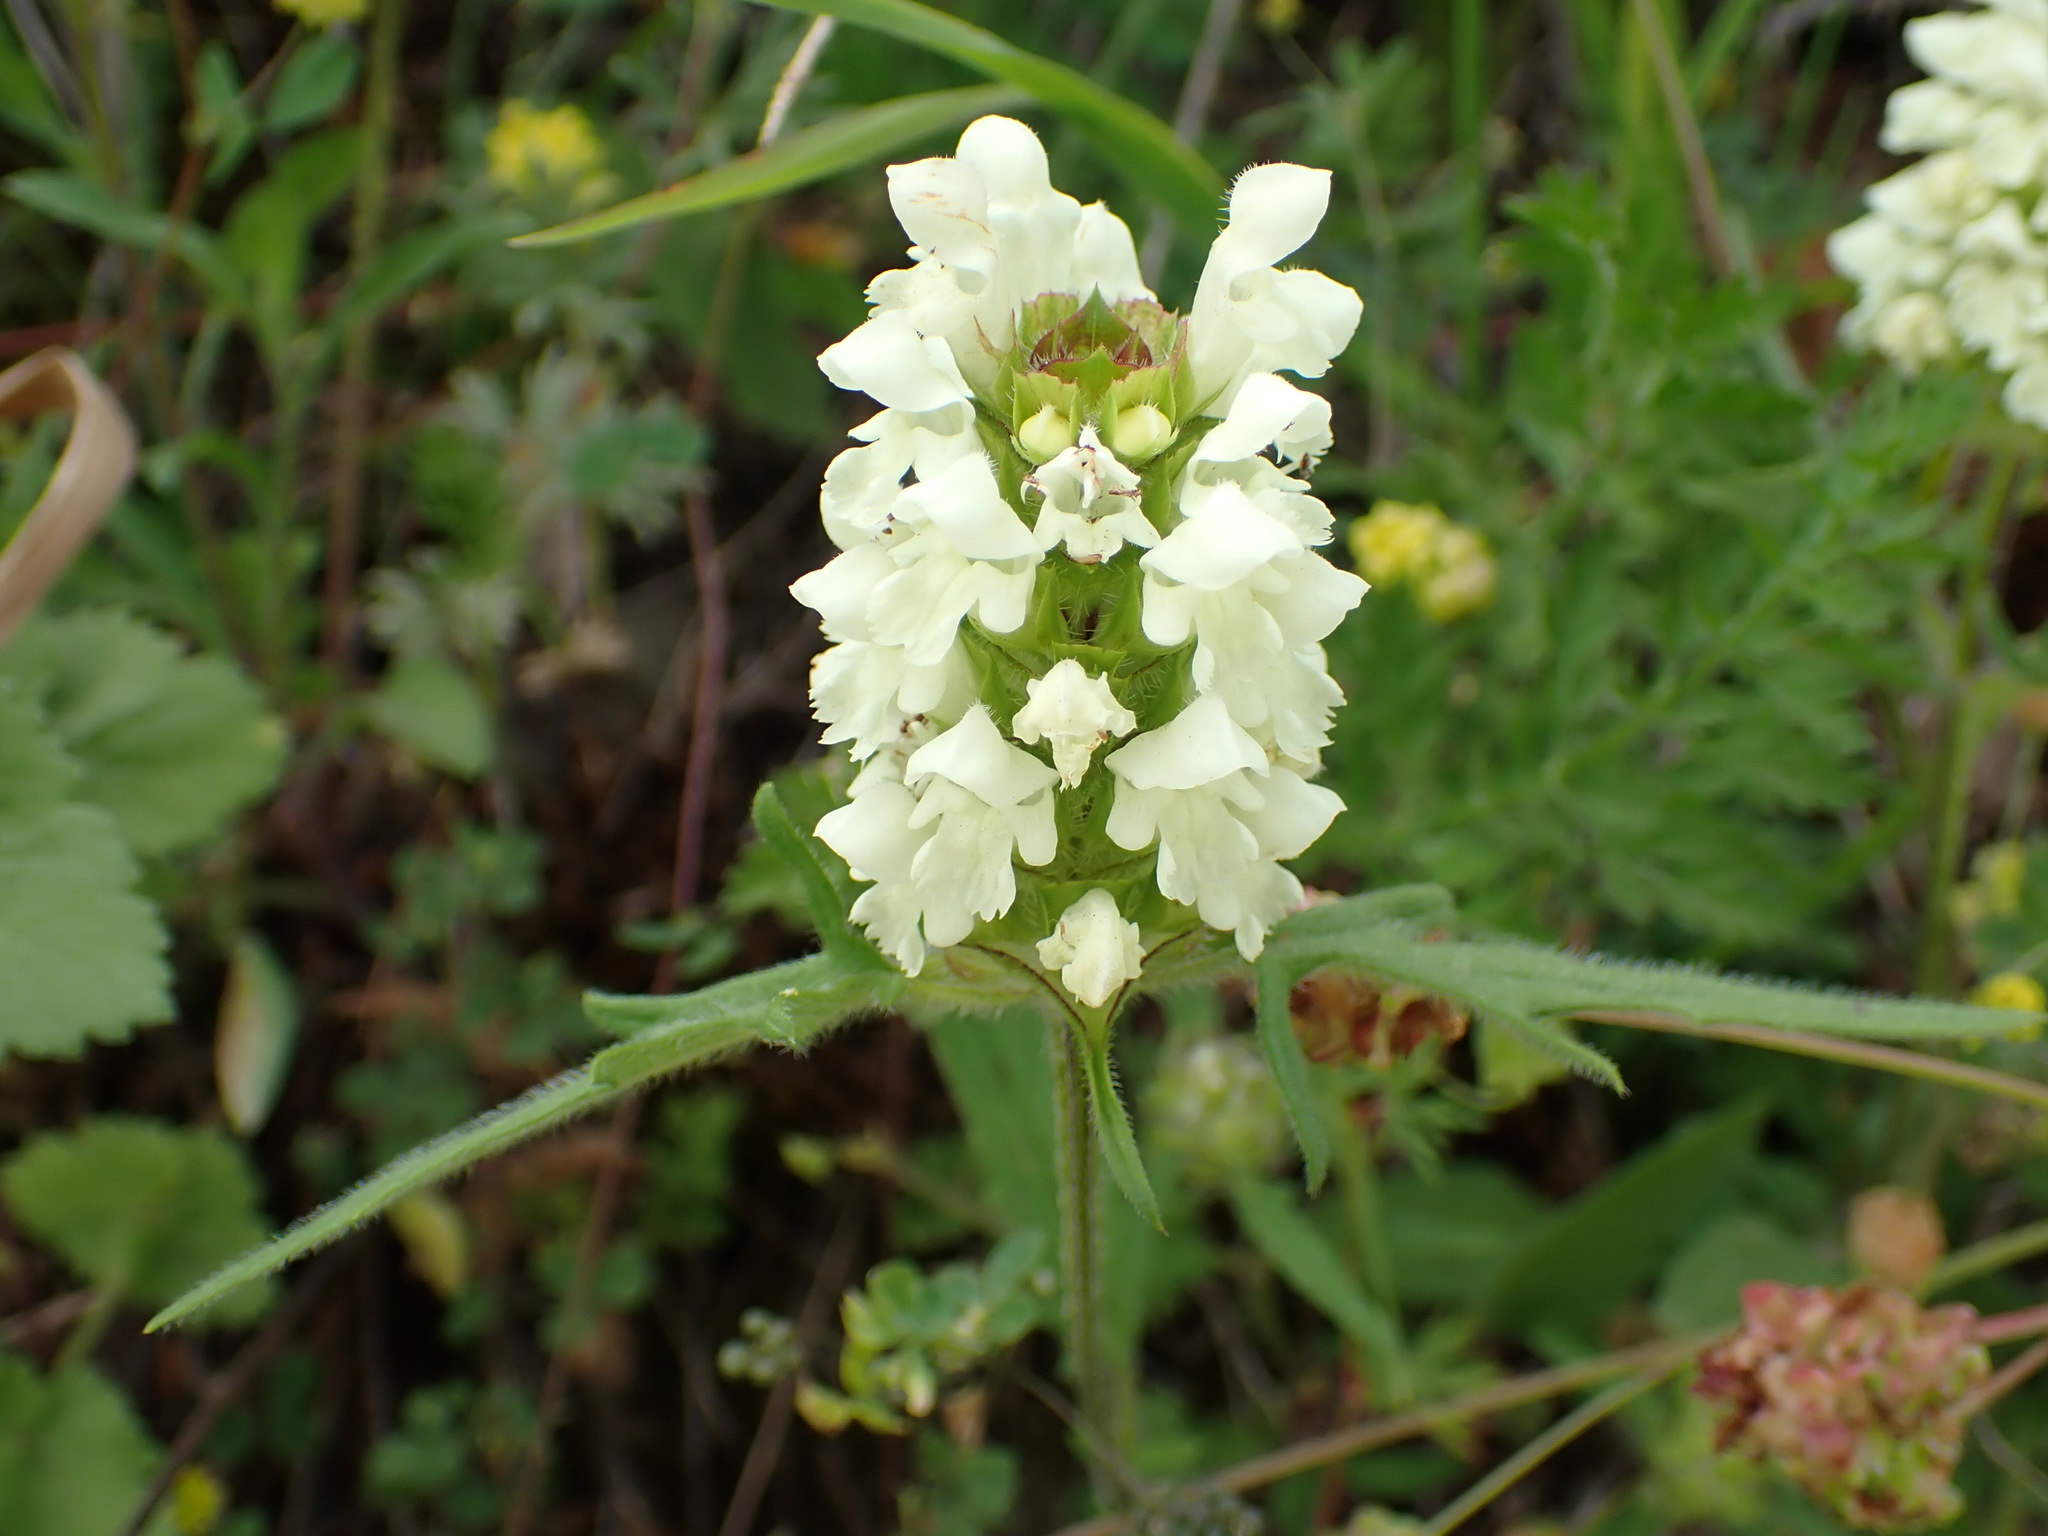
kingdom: Plantae
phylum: Tracheophyta
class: Magnoliopsida
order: Lamiales
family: Lamiaceae
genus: Prunella
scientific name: Prunella laciniata
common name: Cut-leaved selfheal
